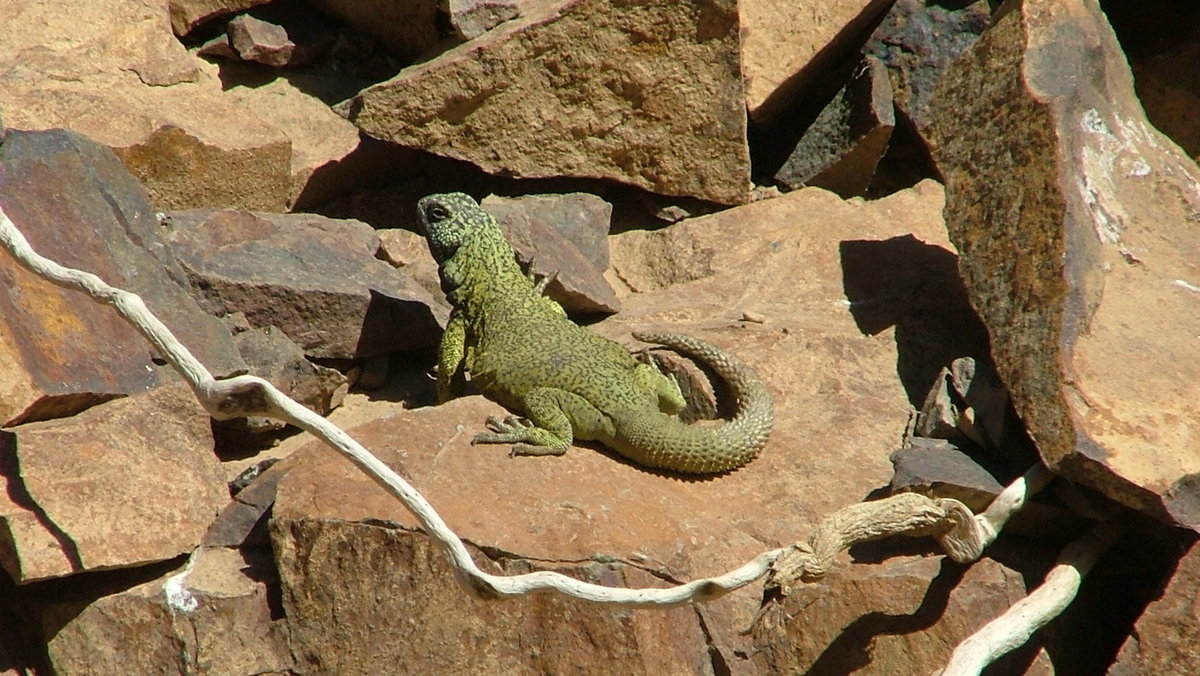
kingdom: Animalia
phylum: Chordata
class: Squamata
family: Liolaemidae
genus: Phymaturus
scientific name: Phymaturus loboi
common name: Lobo’s rocky lizard
